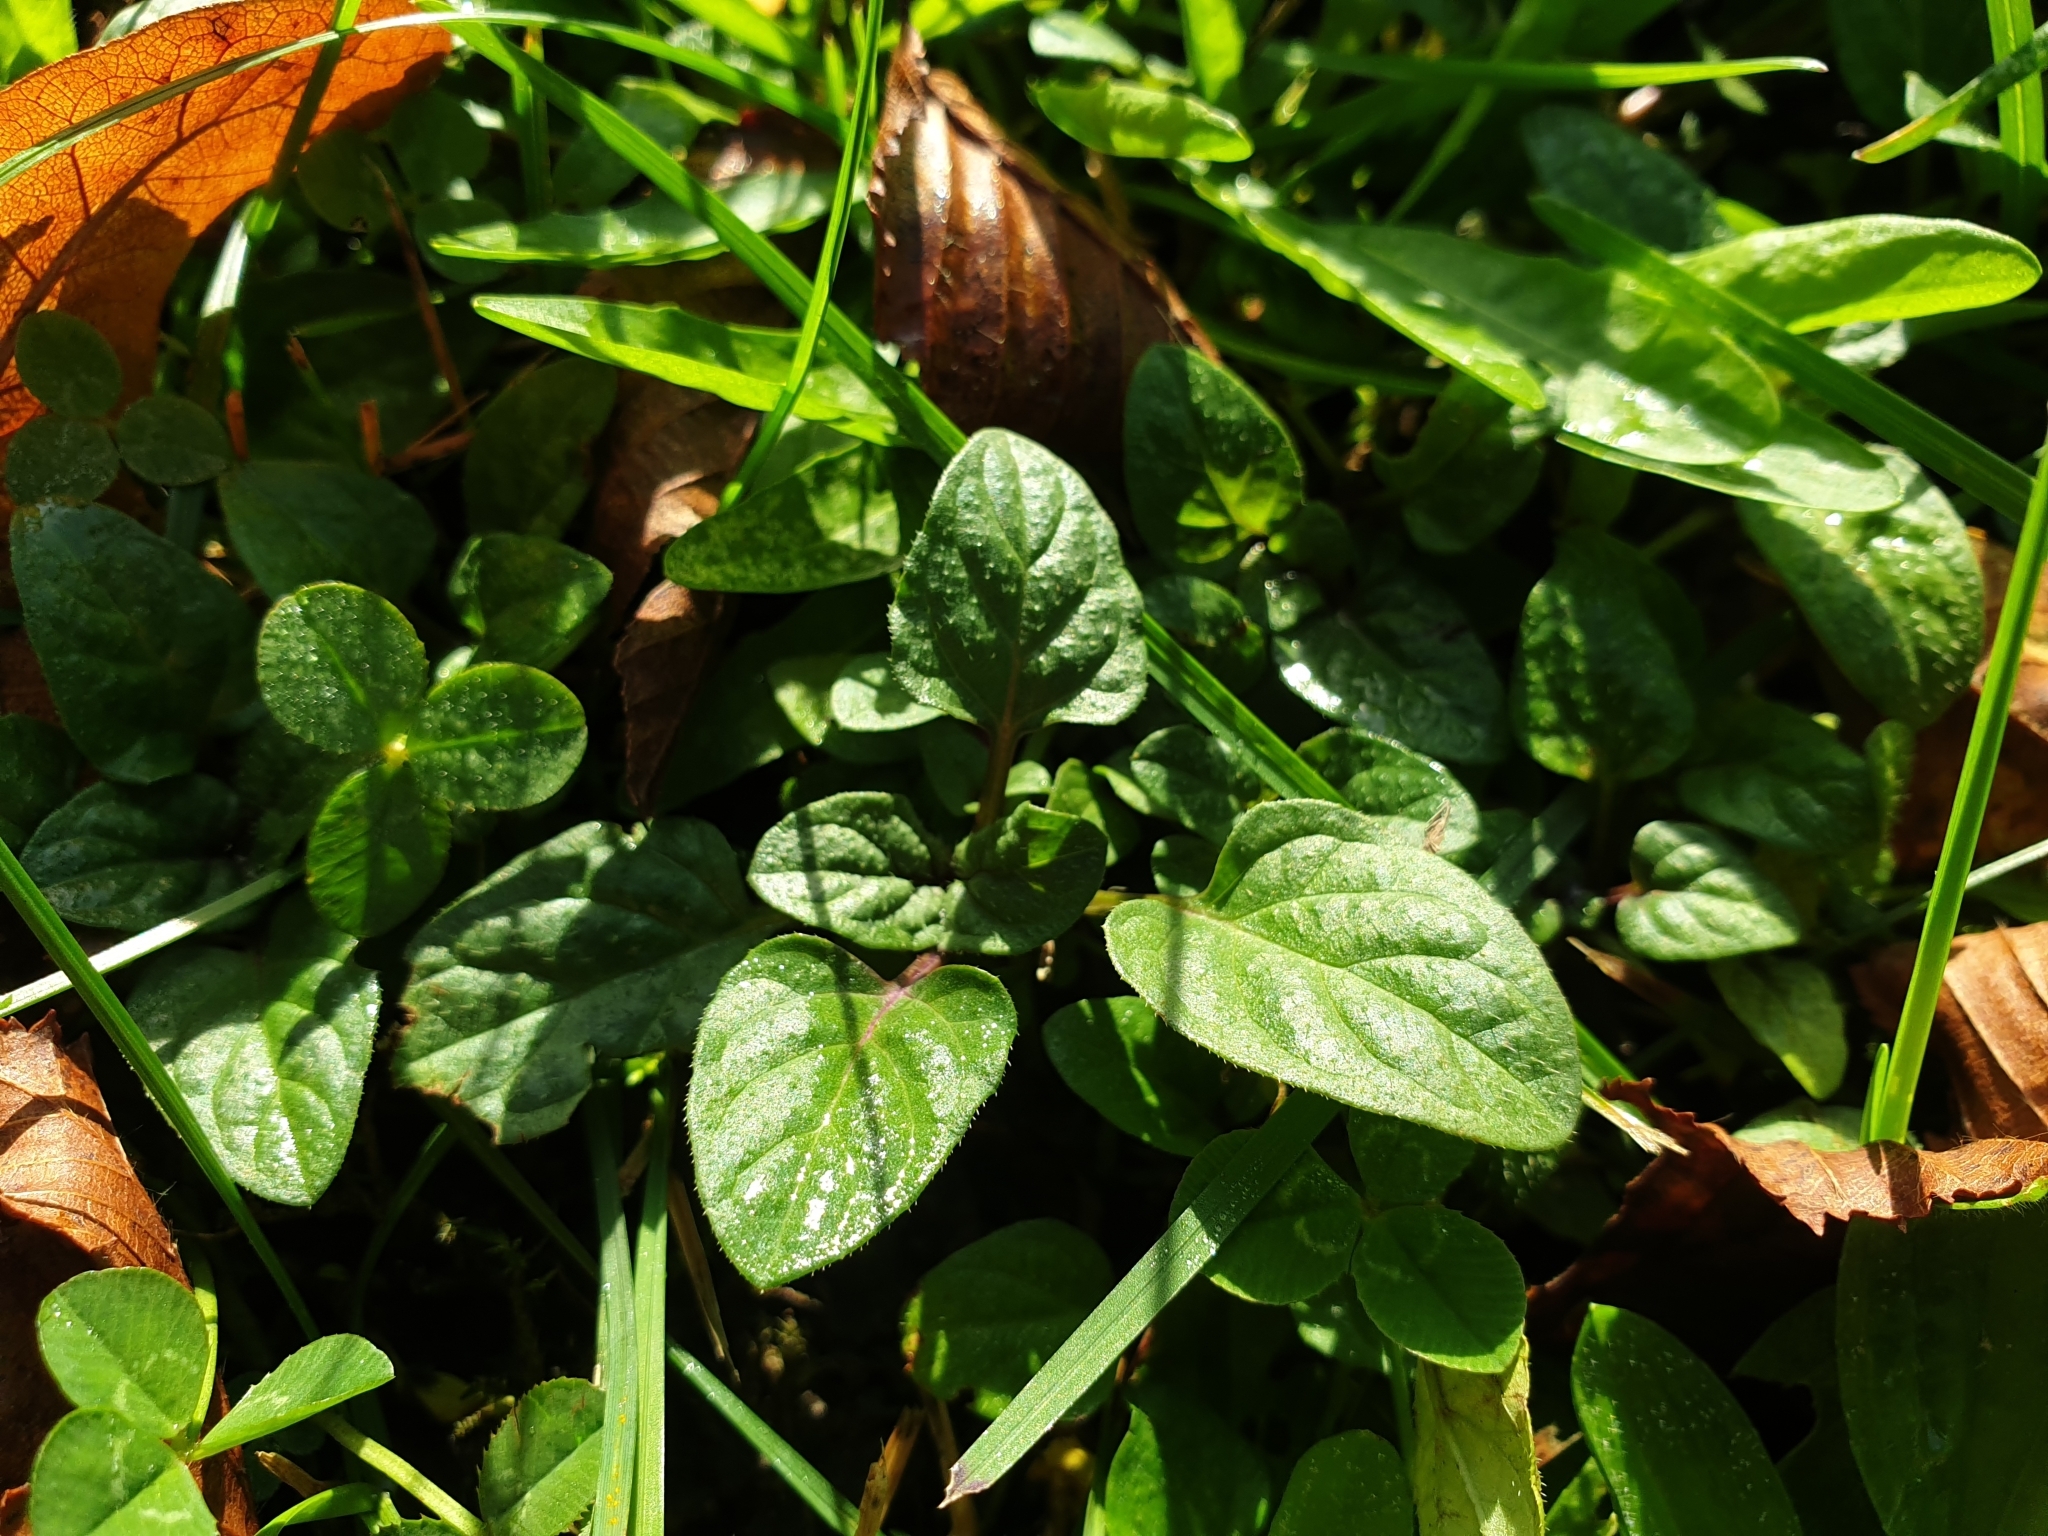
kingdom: Plantae
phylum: Tracheophyta
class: Magnoliopsida
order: Lamiales
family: Lamiaceae
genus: Prunella
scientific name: Prunella vulgaris
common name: Heal-all
